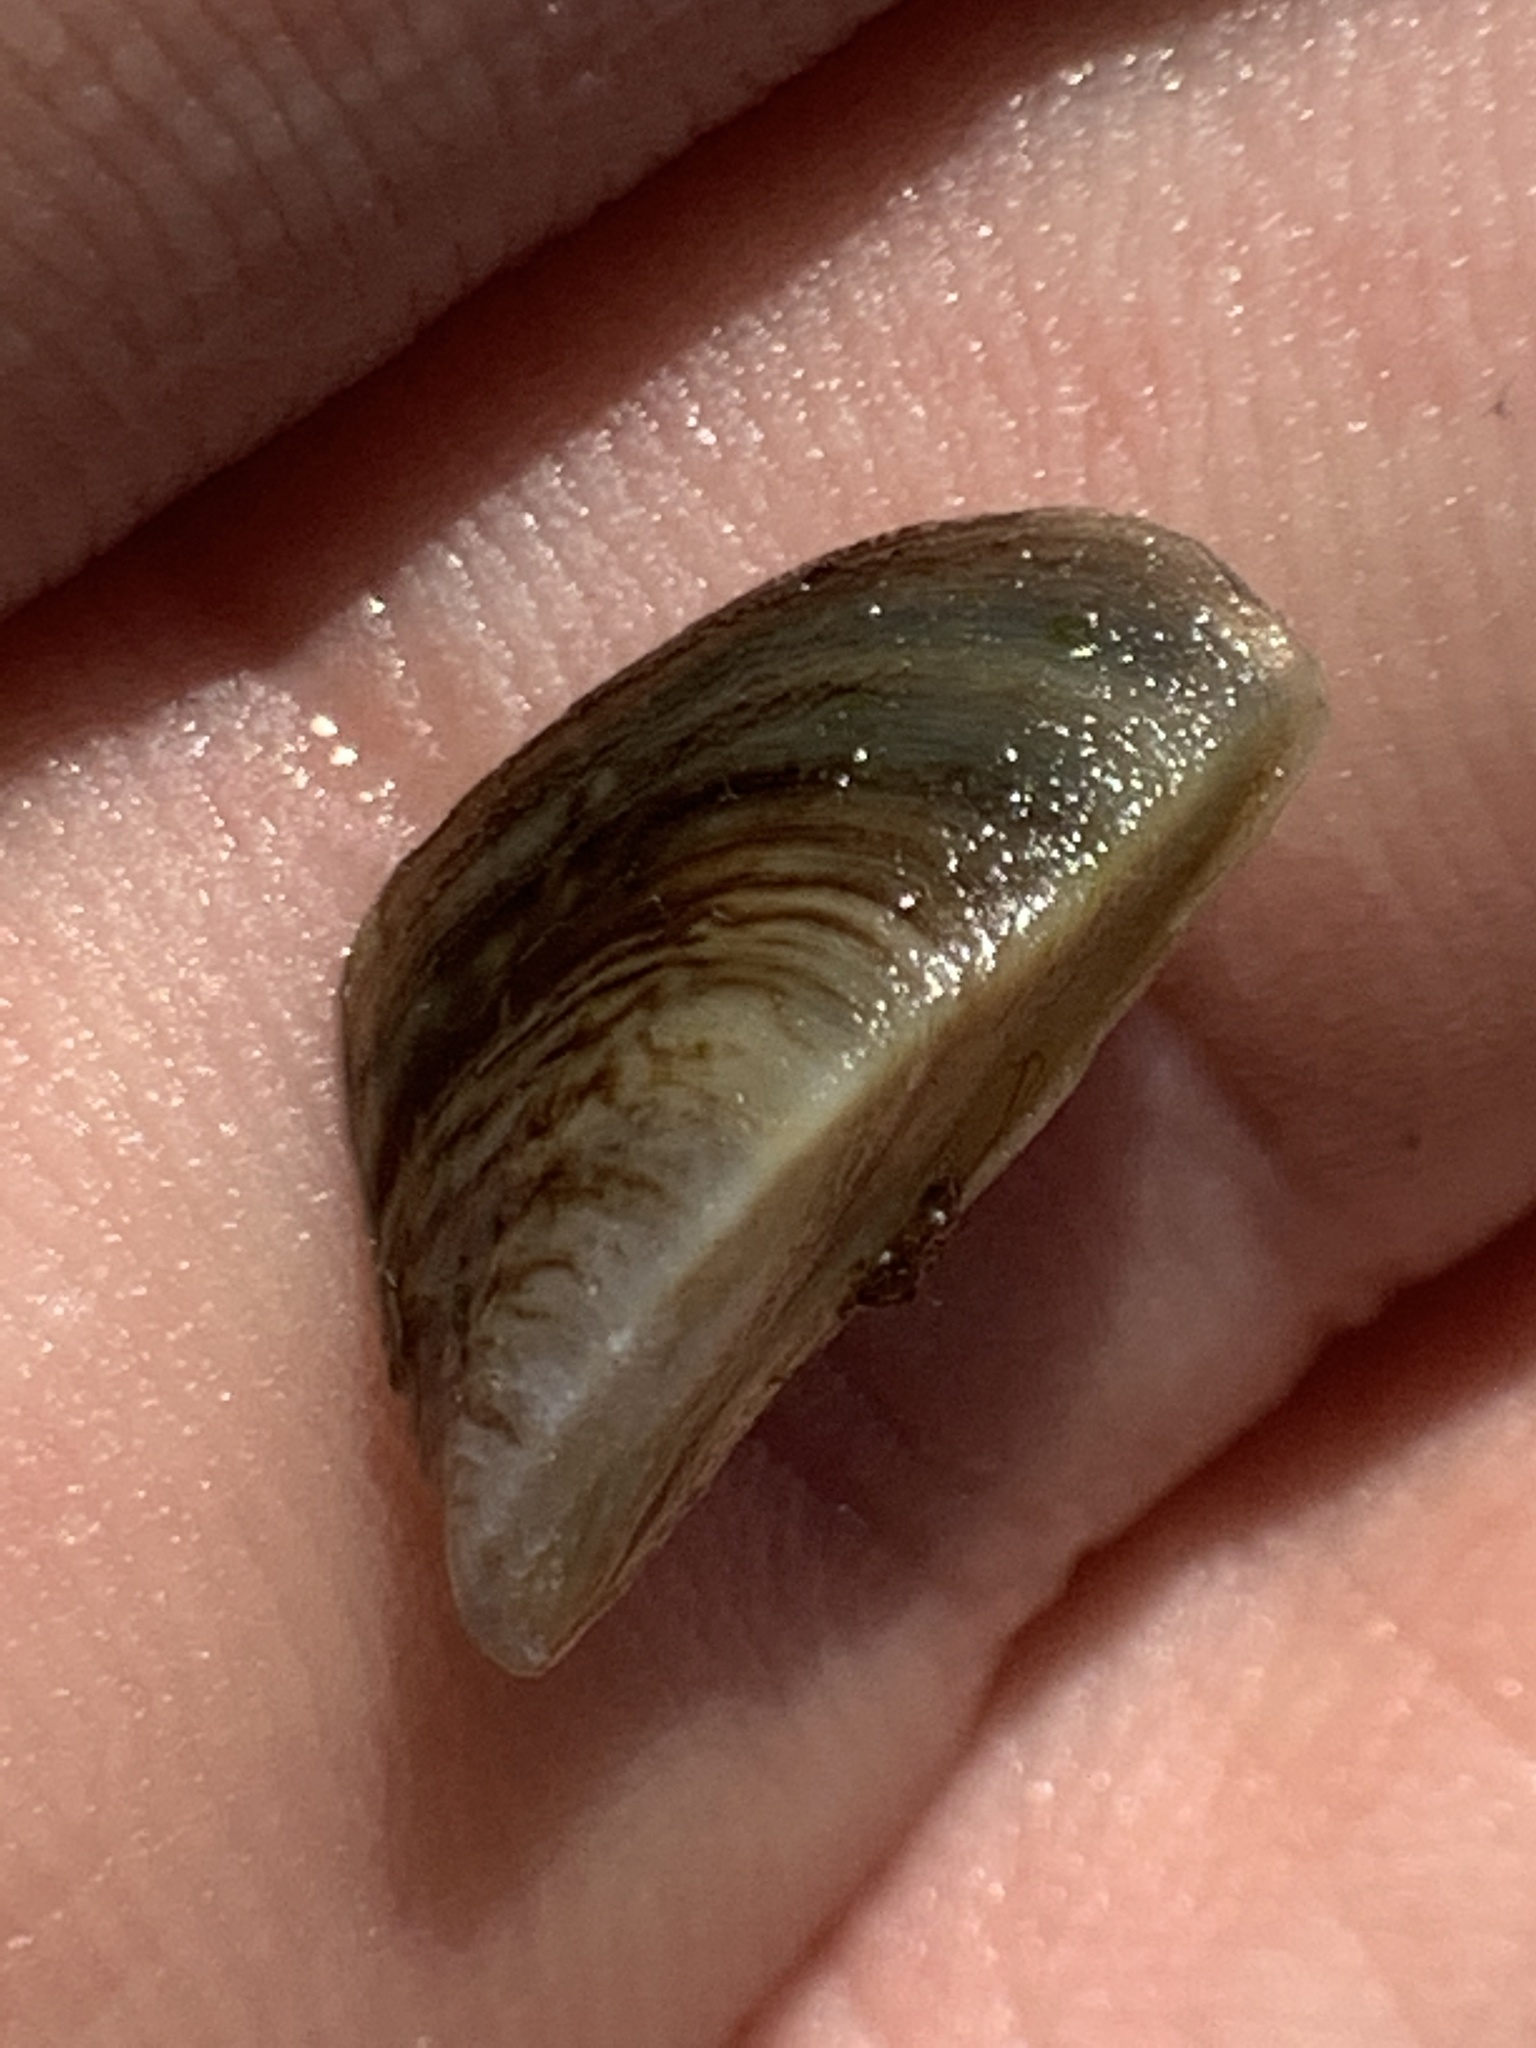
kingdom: Animalia
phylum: Mollusca
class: Bivalvia
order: Myida
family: Dreissenidae
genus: Dreissena
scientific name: Dreissena polymorpha
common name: Zebra mussel
